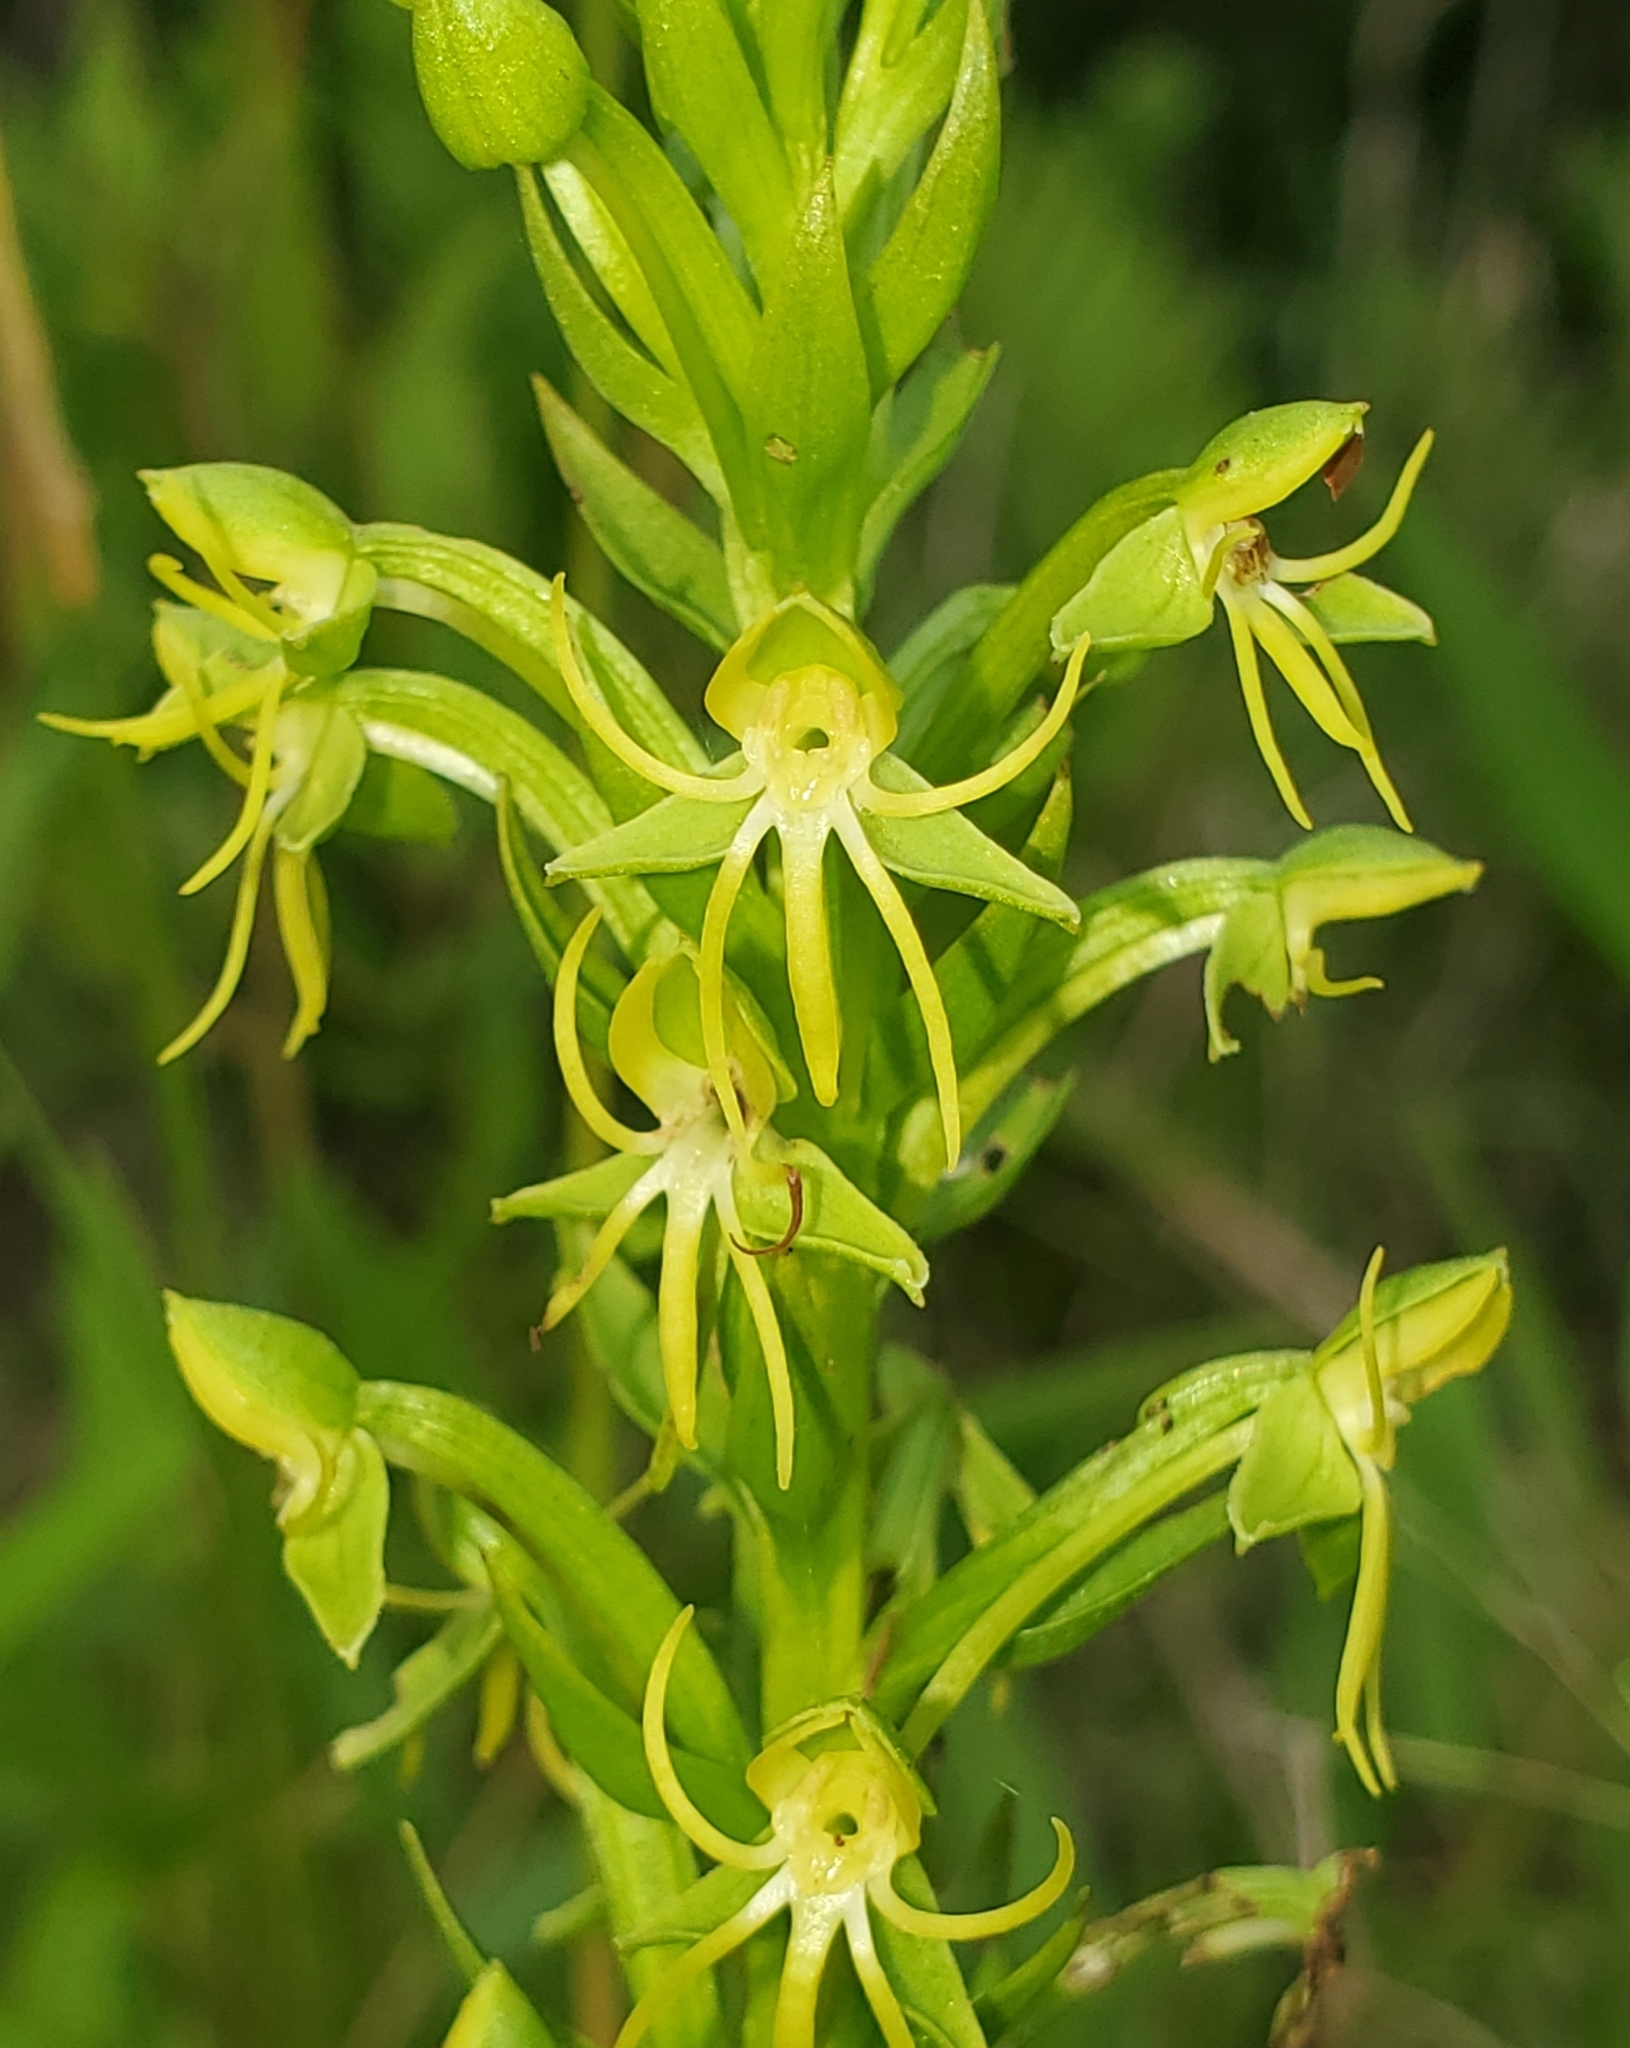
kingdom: Plantae
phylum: Tracheophyta
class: Liliopsida
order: Asparagales
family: Orchidaceae
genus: Habenaria
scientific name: Habenaria repens
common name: Water orchid
